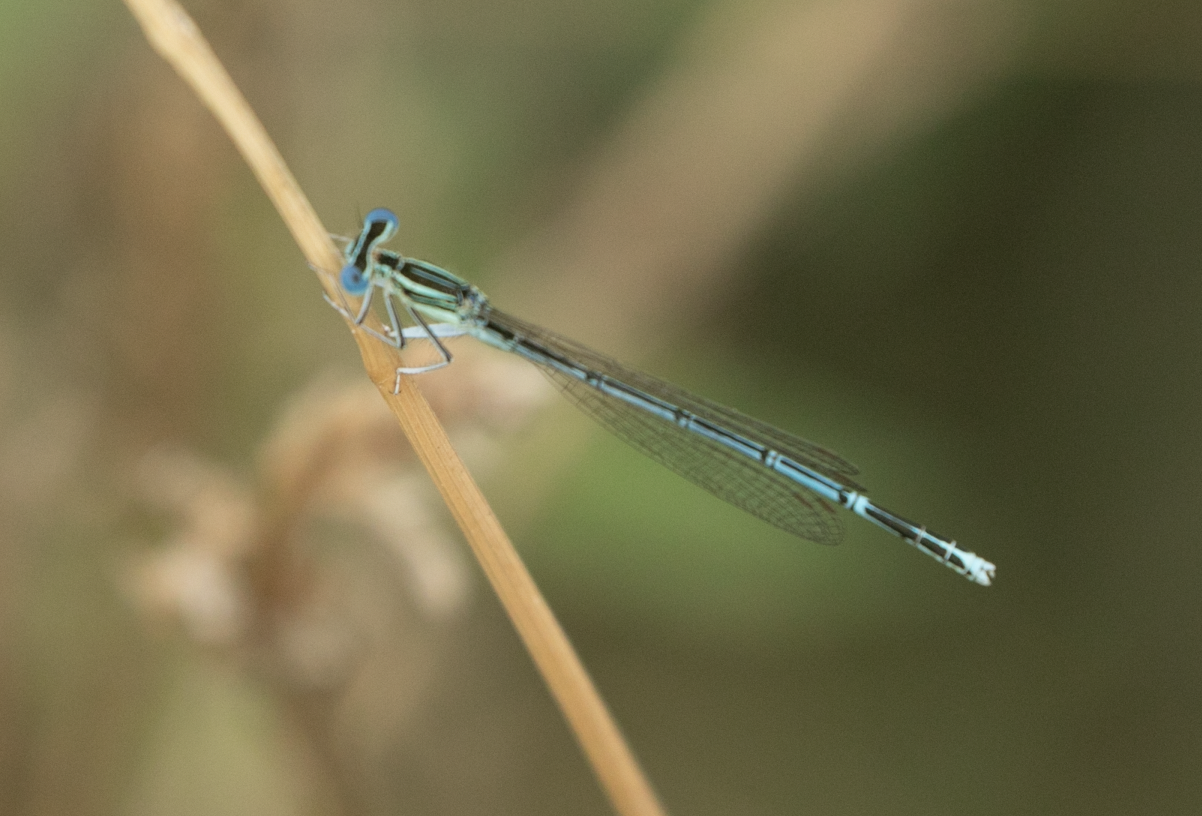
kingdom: Animalia
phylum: Arthropoda
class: Insecta
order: Odonata
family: Platycnemididae
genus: Platycnemis
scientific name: Platycnemis pennipes
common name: White-legged damselfly
